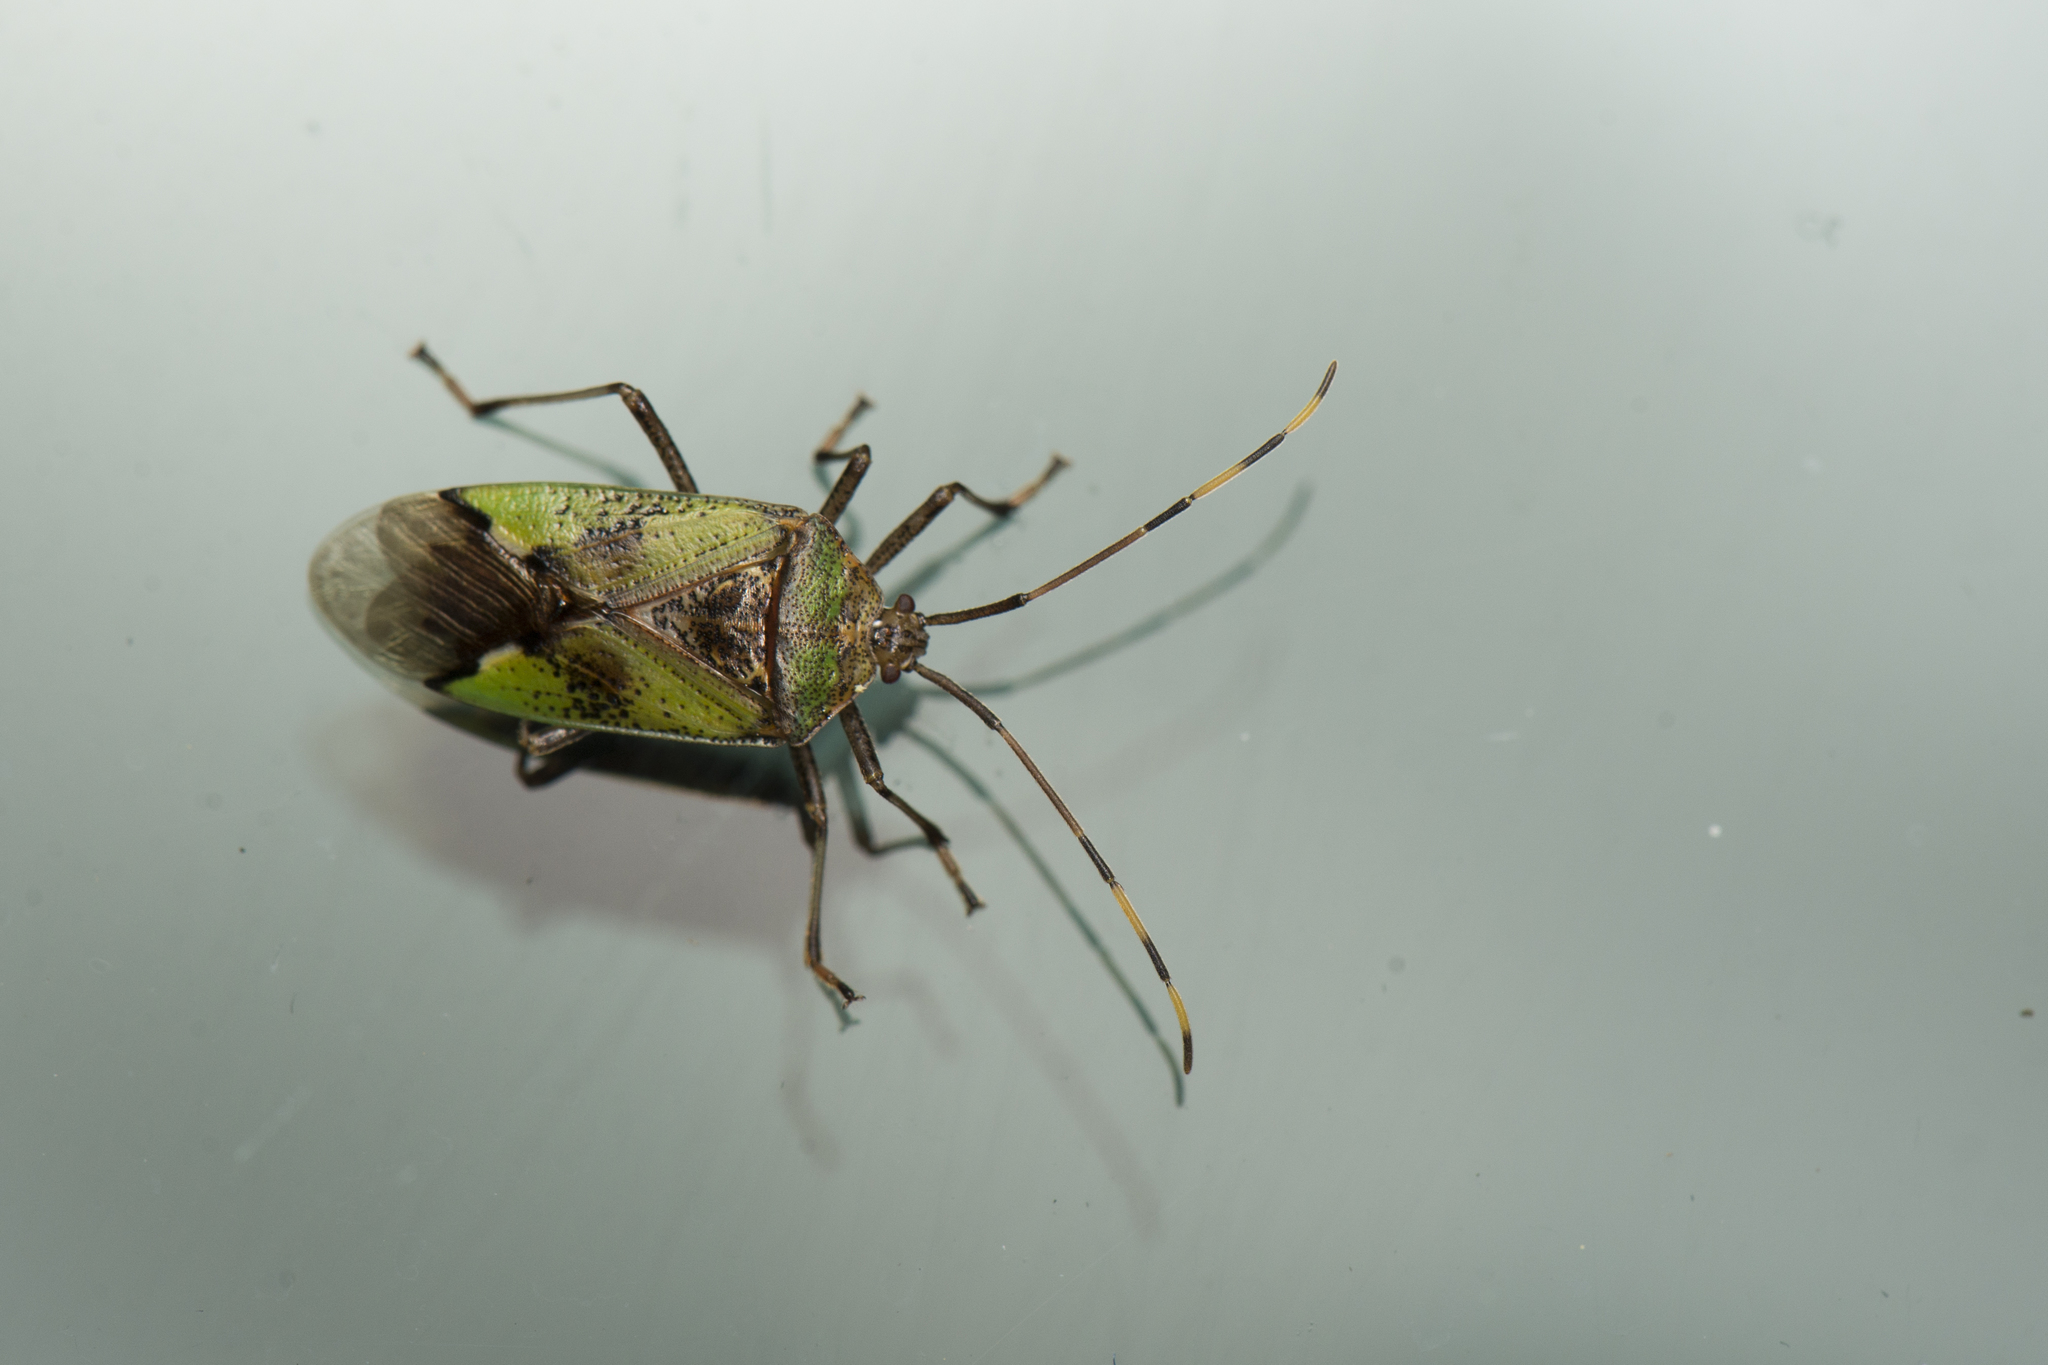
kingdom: Animalia
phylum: Arthropoda
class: Insecta
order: Hemiptera
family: Urostylididae
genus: Urochela
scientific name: Urochela strandi
